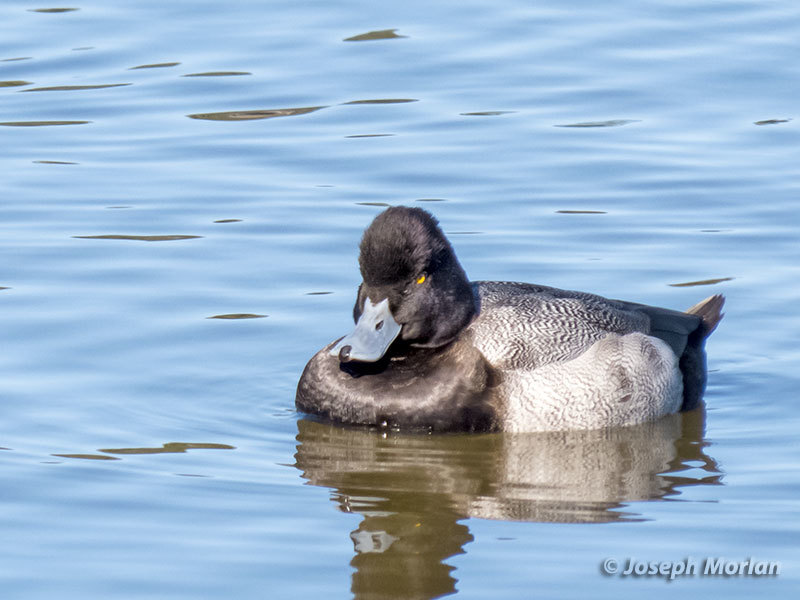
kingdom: Animalia
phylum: Chordata
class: Aves
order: Anseriformes
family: Anatidae
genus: Aythya
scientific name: Aythya affinis
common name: Lesser scaup
